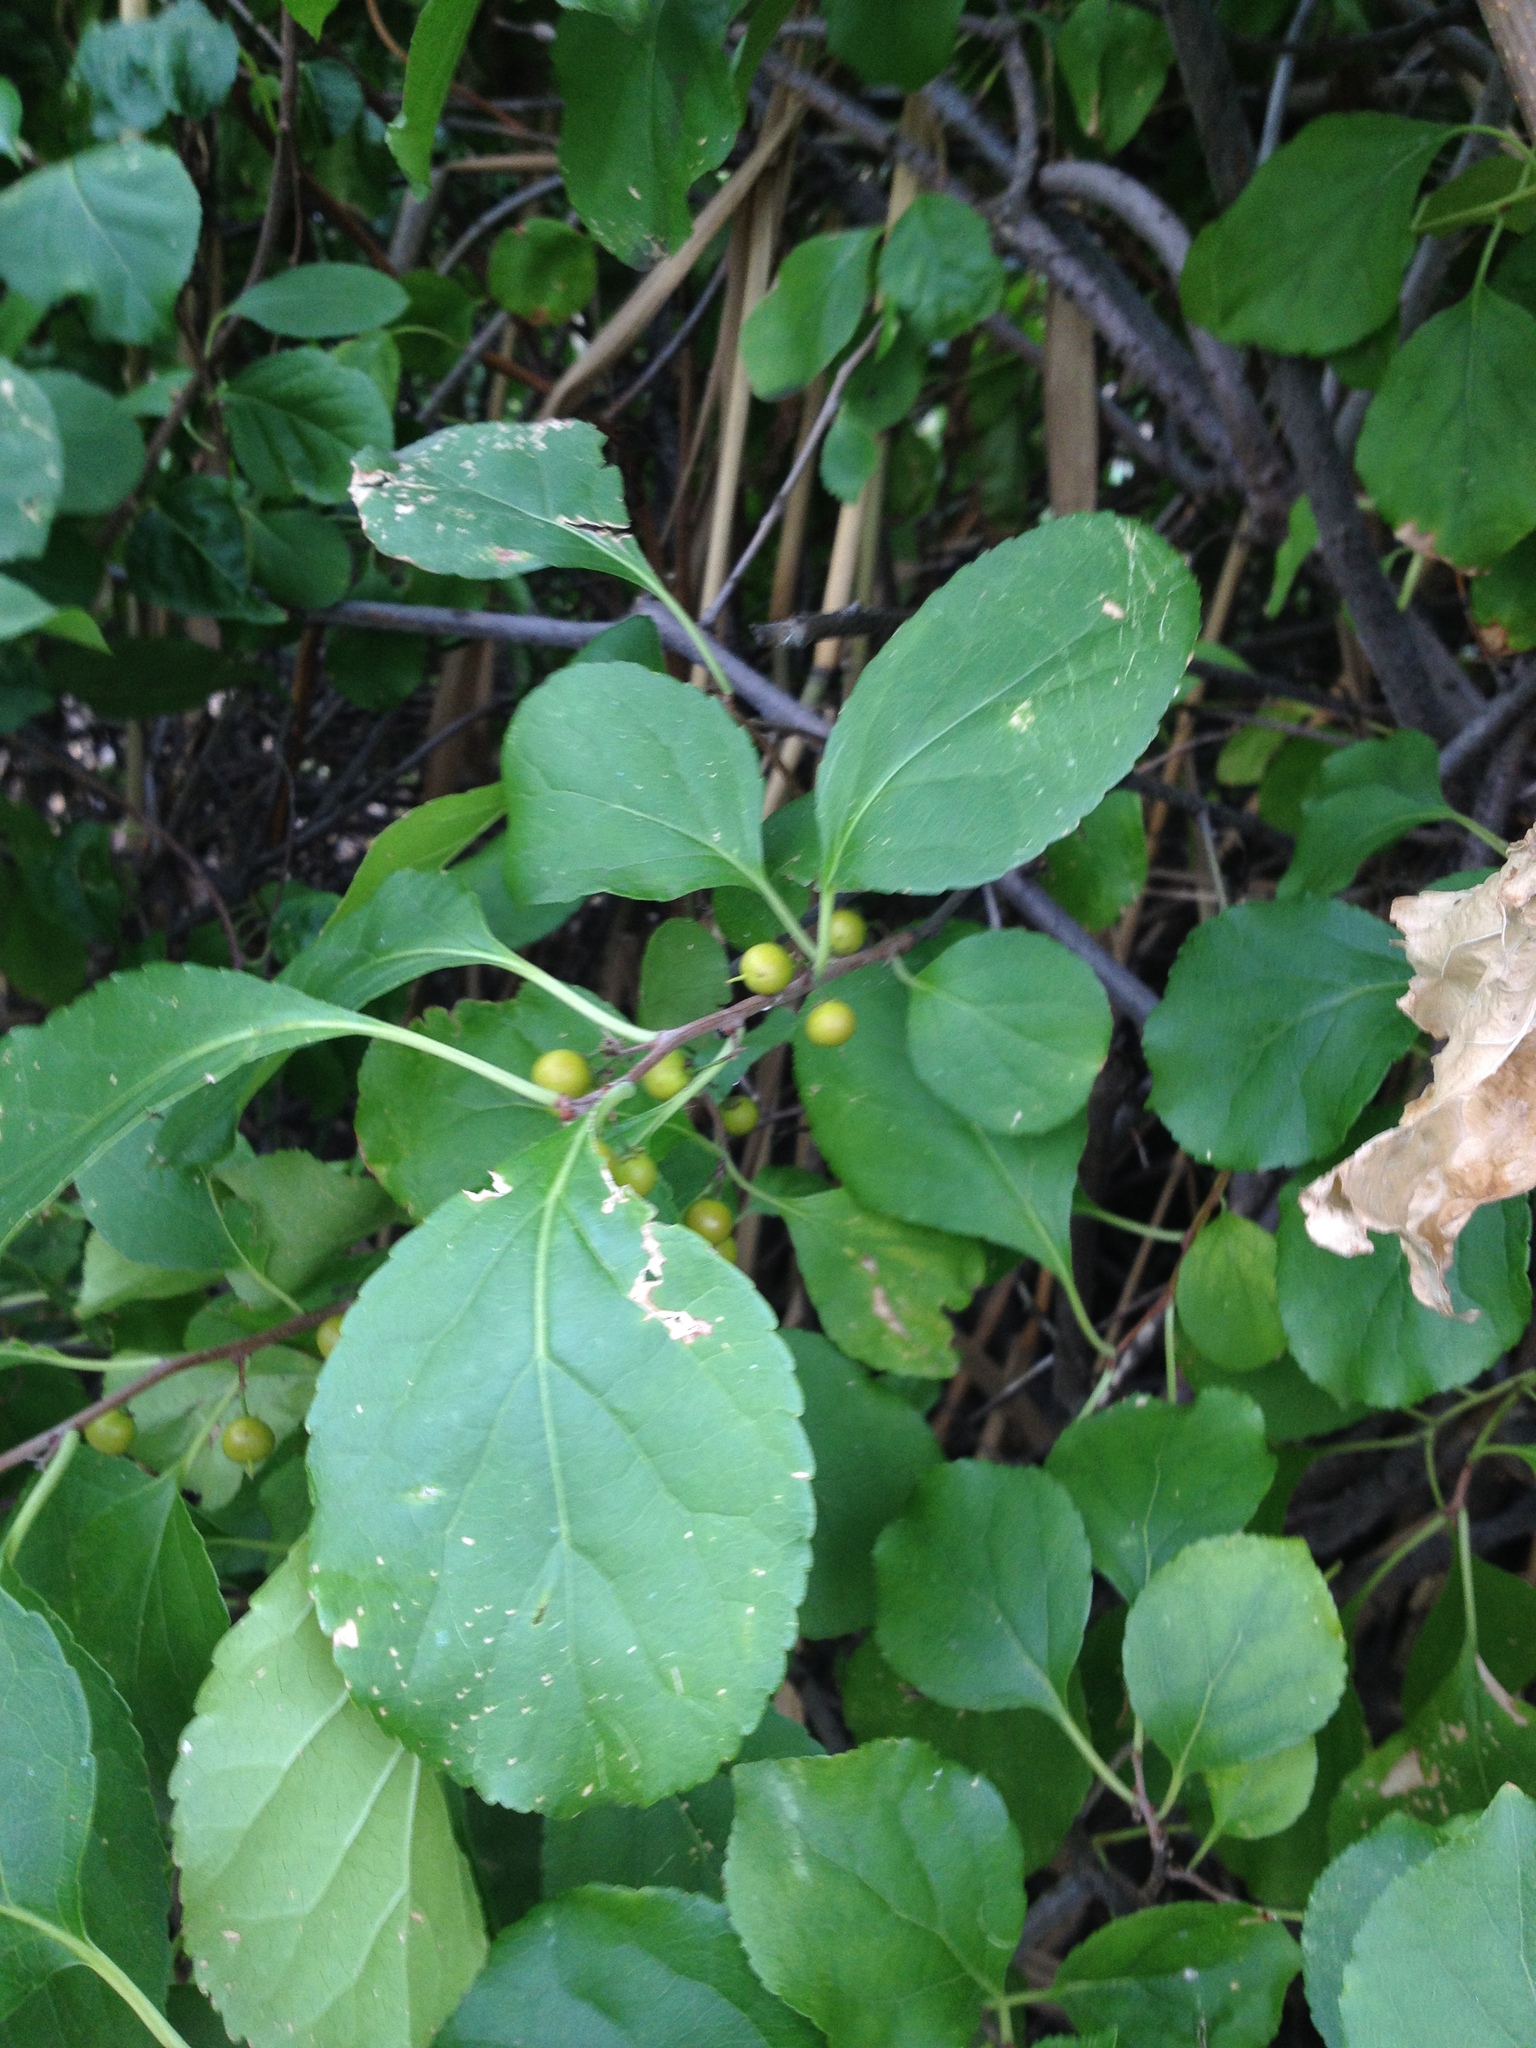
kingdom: Plantae
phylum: Tracheophyta
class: Magnoliopsida
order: Celastrales
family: Celastraceae
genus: Celastrus
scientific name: Celastrus orbiculatus
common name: Oriental bittersweet
